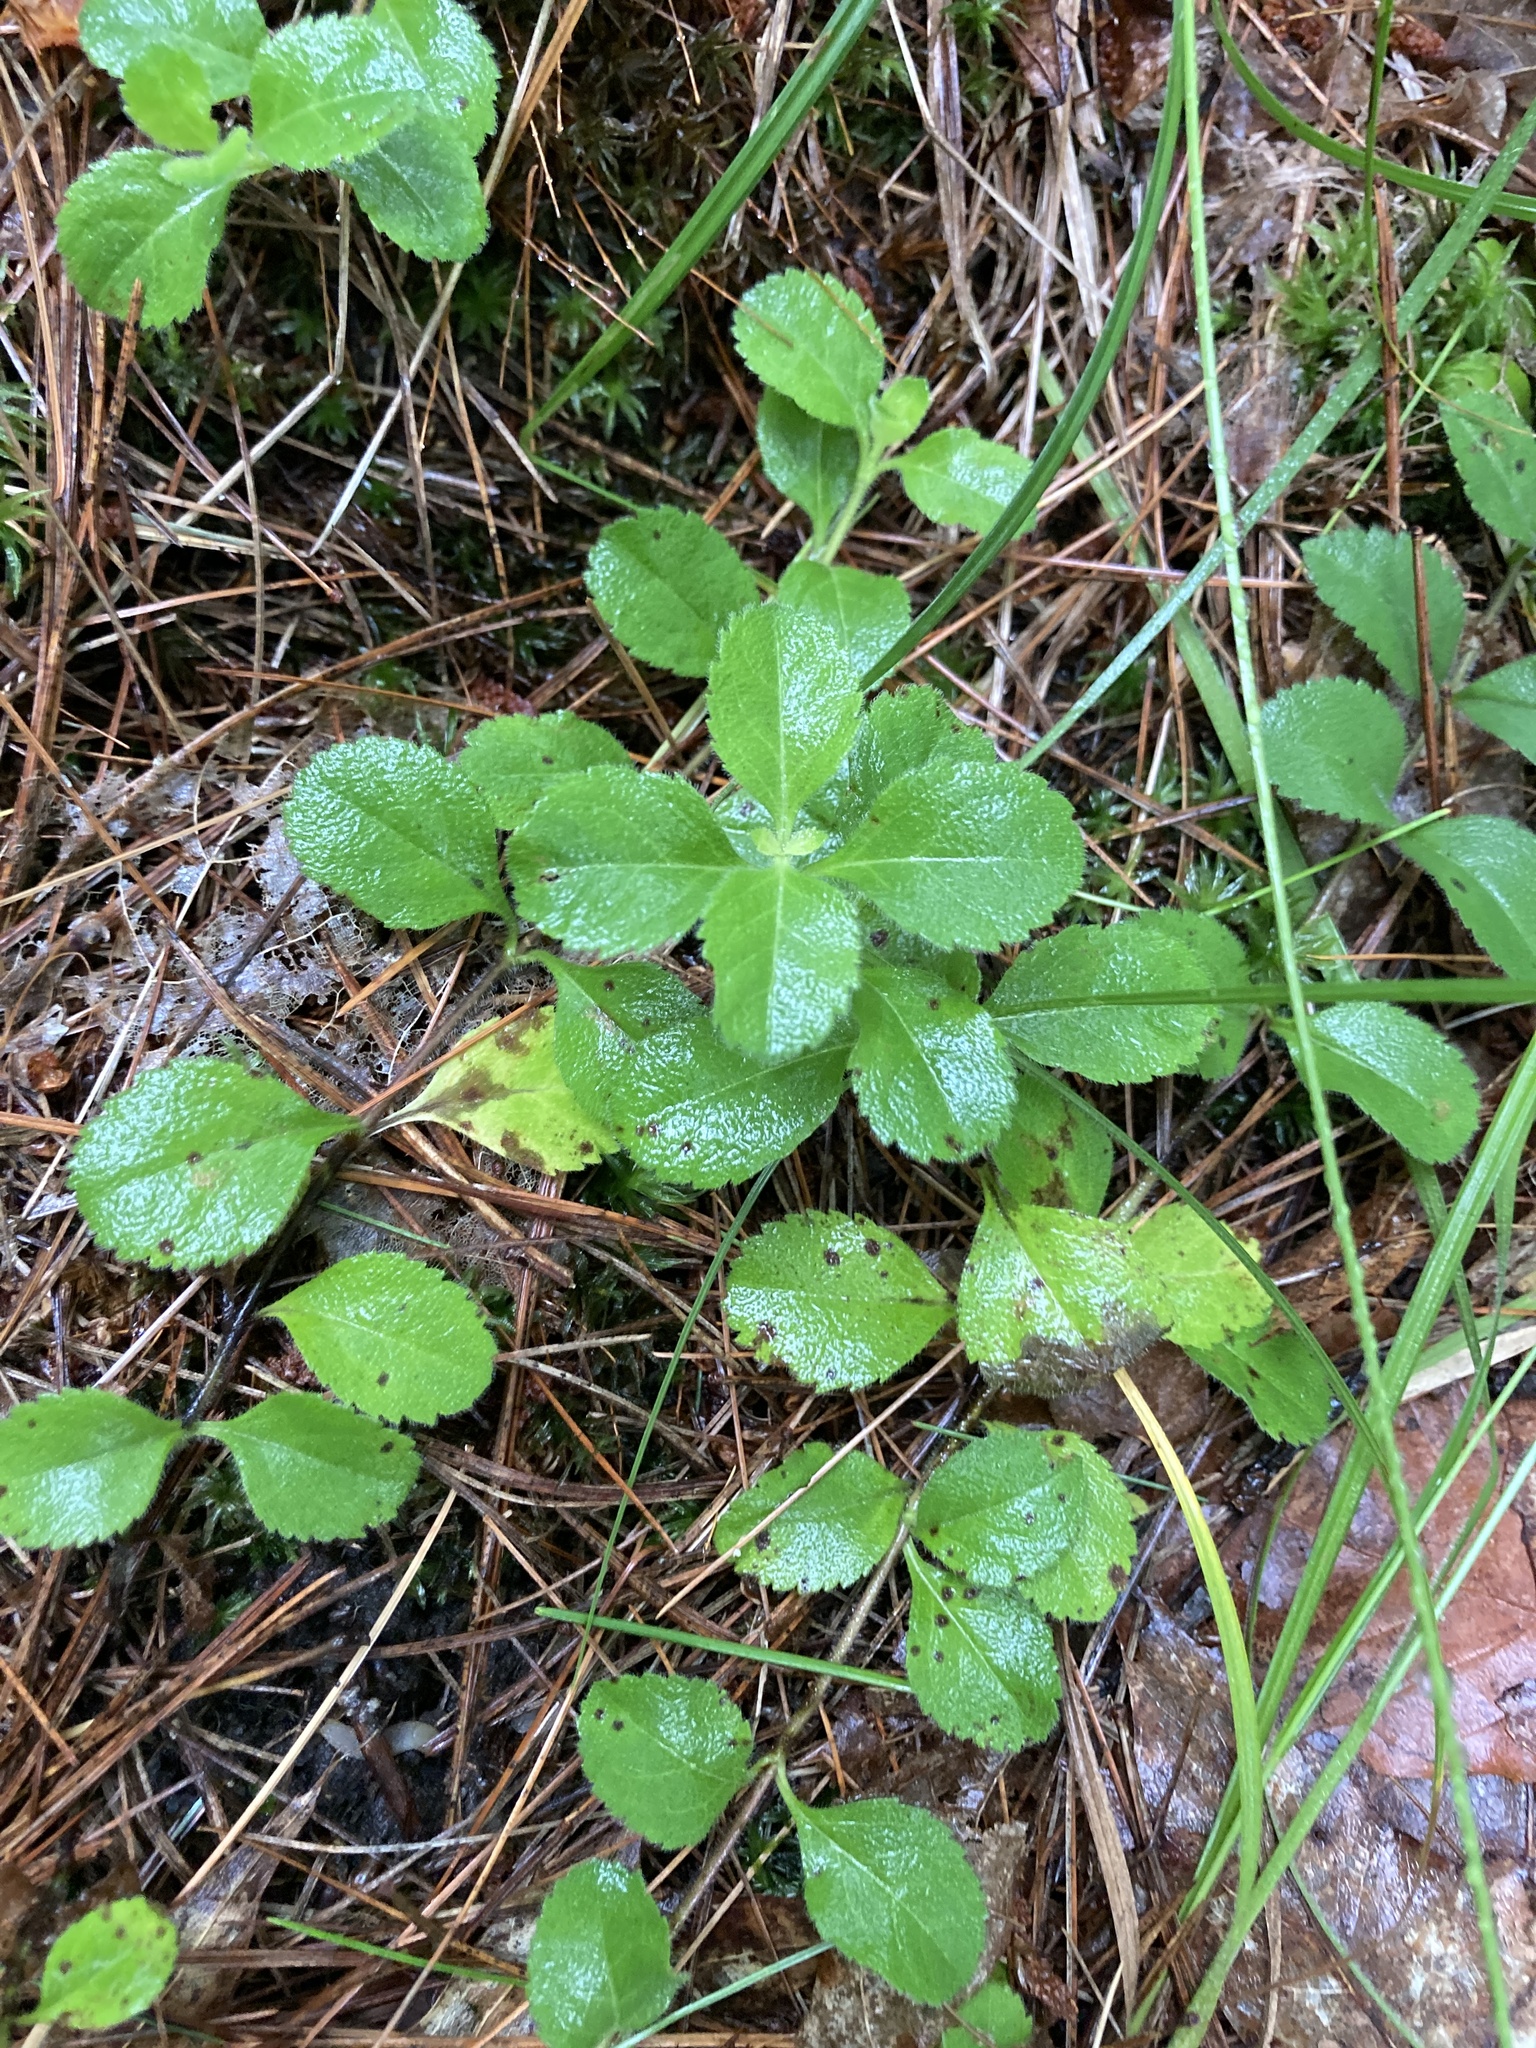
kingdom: Plantae
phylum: Tracheophyta
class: Magnoliopsida
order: Lamiales
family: Plantaginaceae
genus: Veronica
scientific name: Veronica officinalis
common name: Common speedwell
